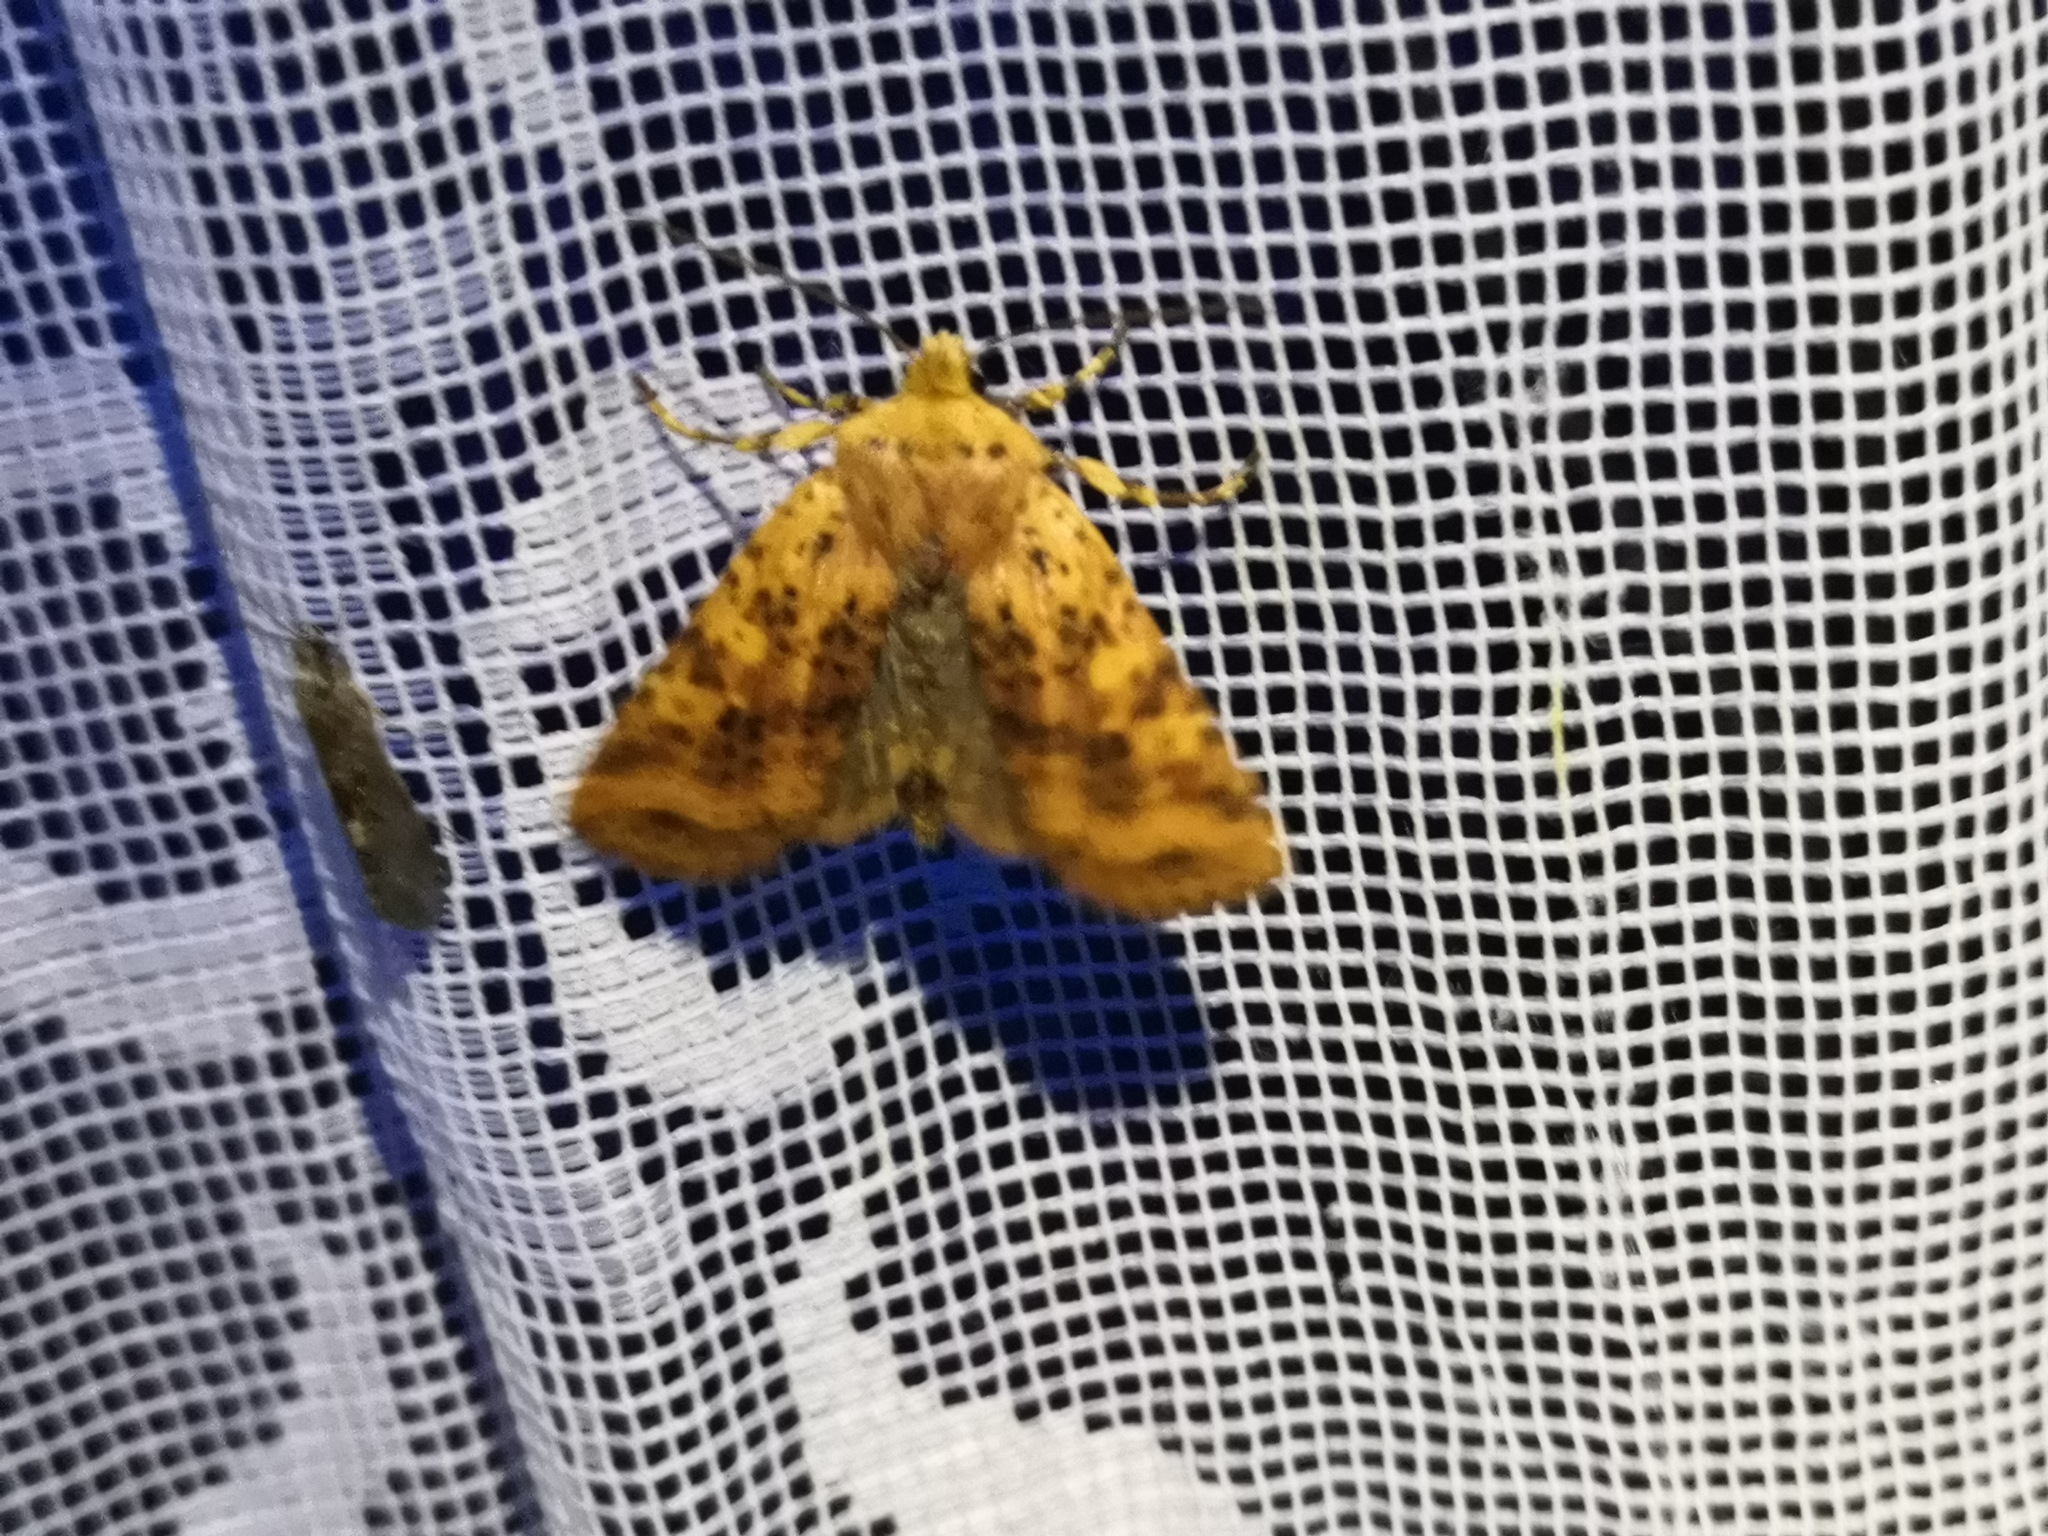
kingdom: Animalia
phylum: Arthropoda
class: Insecta
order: Lepidoptera
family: Noctuidae
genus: Conistra
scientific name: Conistra rubiginea
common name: Dotted chestnut
